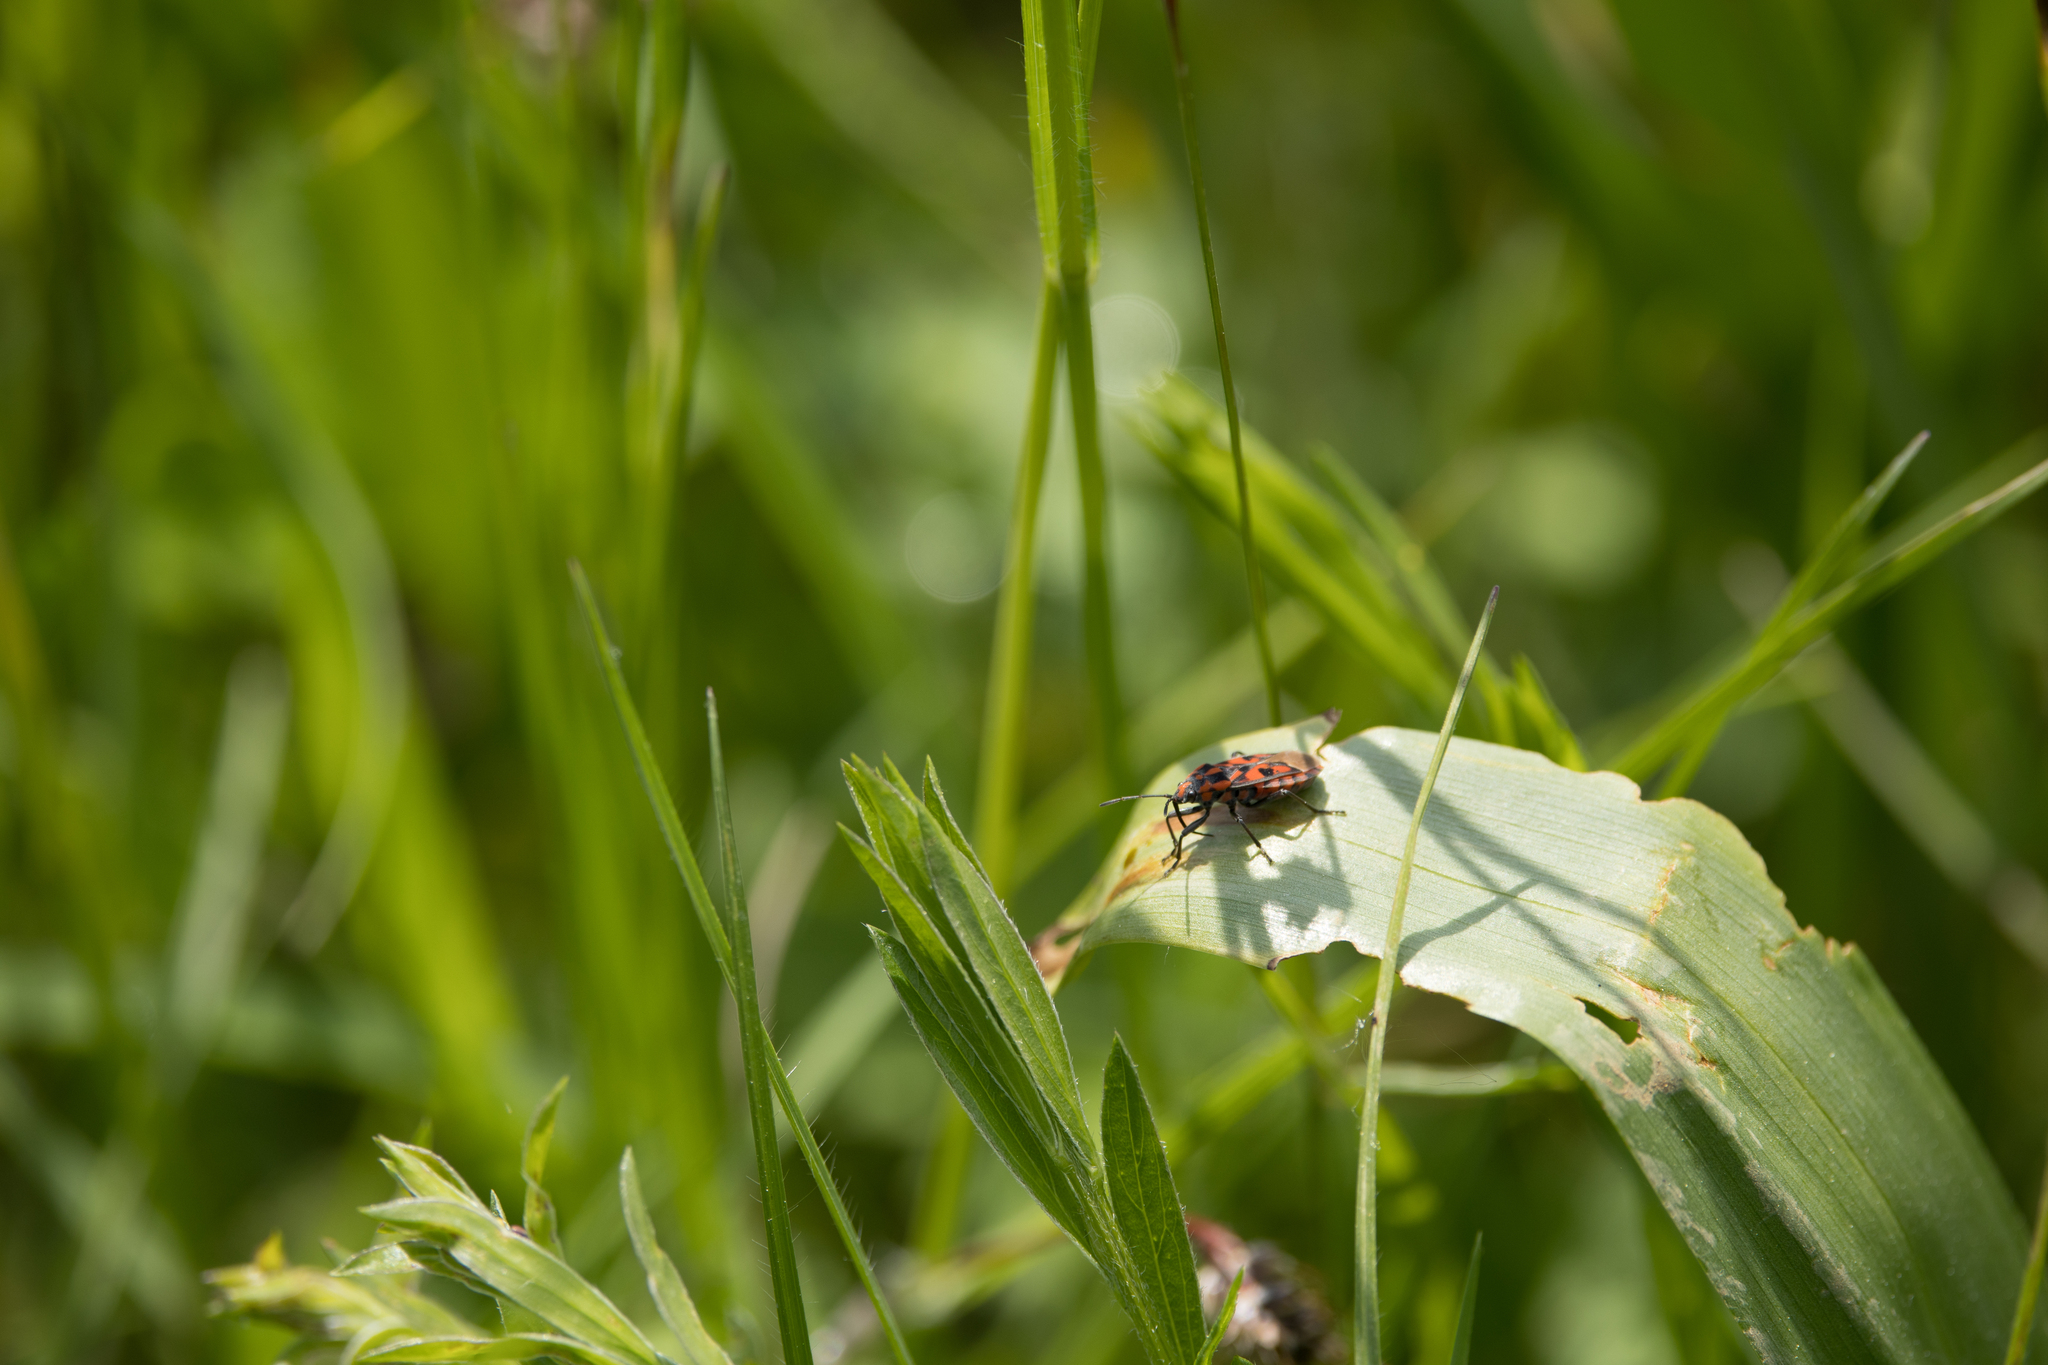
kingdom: Animalia
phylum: Arthropoda
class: Insecta
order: Hemiptera
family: Lygaeidae
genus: Spilostethus
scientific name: Spilostethus saxatilis
